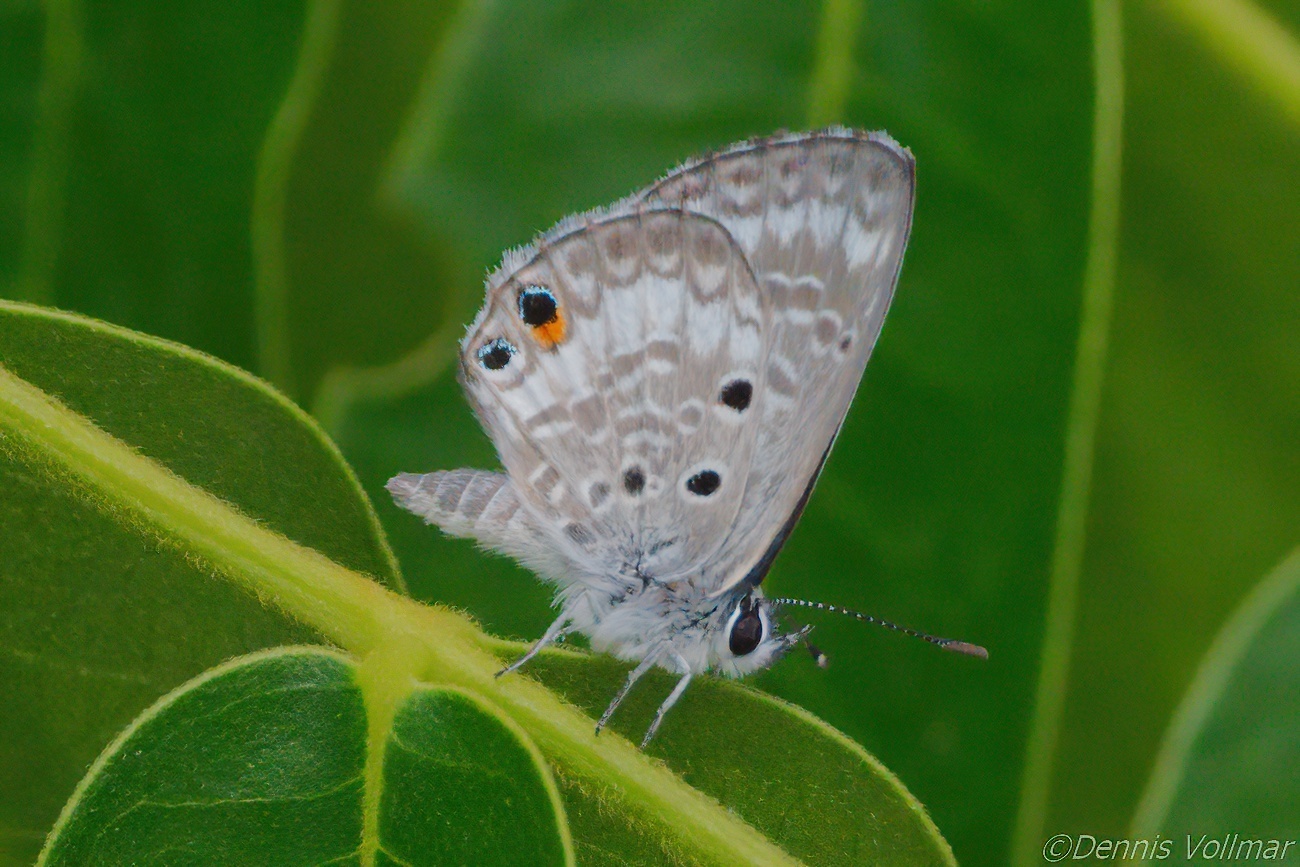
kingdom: Animalia
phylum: Arthropoda
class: Insecta
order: Lepidoptera
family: Lycaenidae
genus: Cyclargus
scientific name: Cyclargus thomasi
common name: Miami blue
